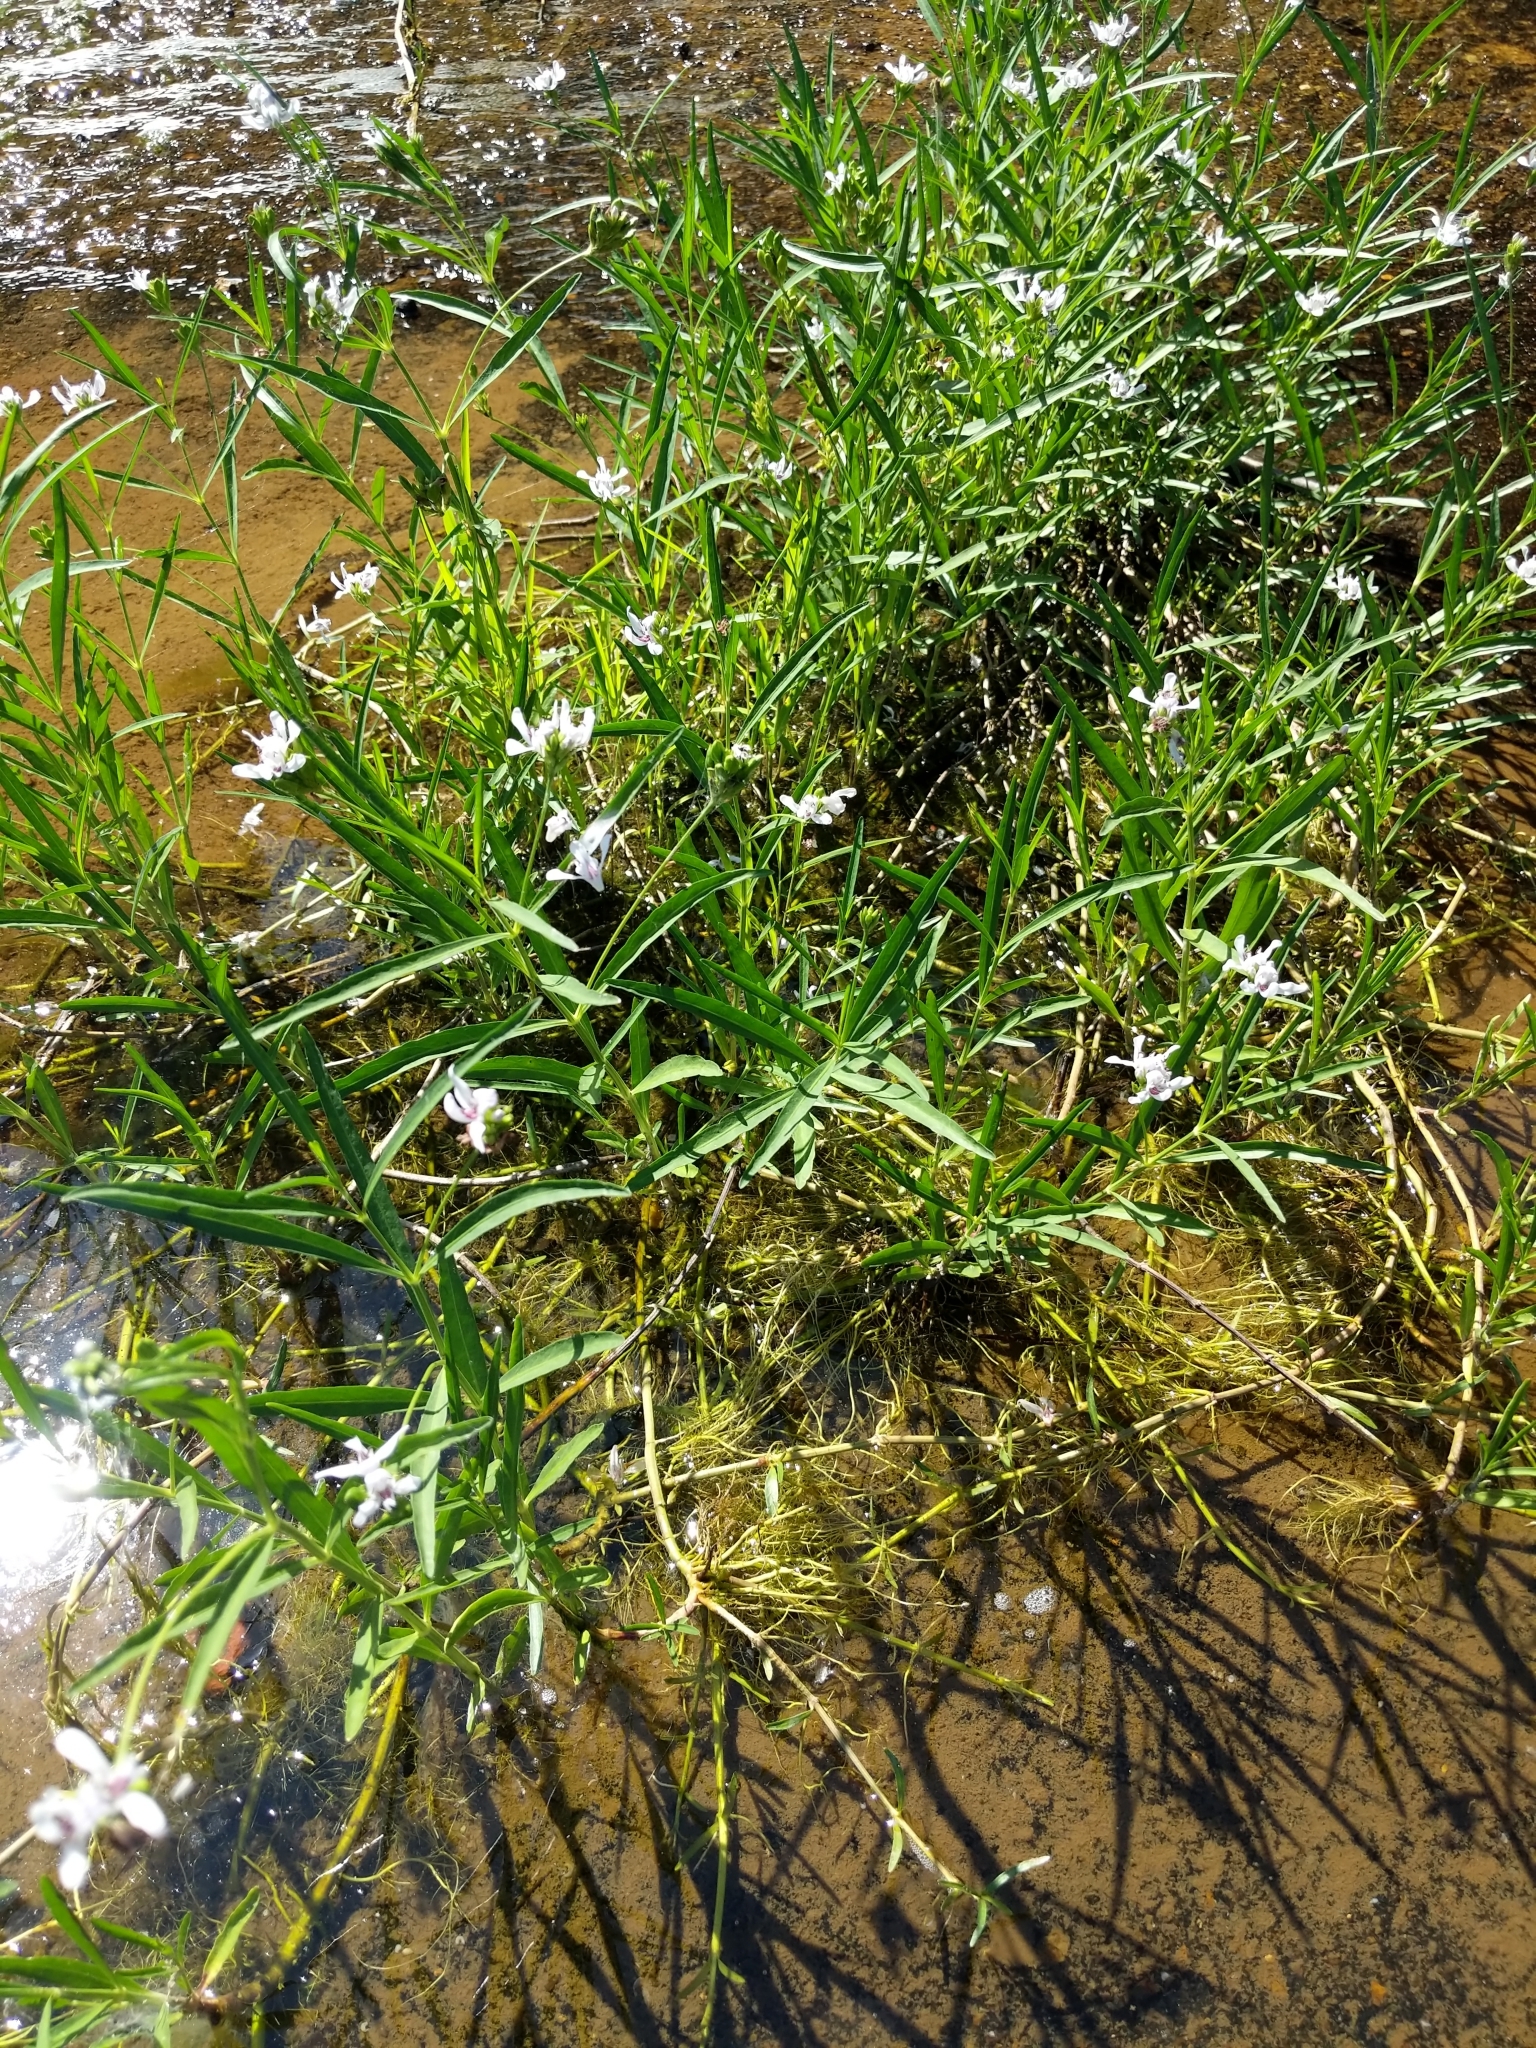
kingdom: Plantae
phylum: Tracheophyta
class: Magnoliopsida
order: Lamiales
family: Acanthaceae
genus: Dianthera
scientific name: Dianthera americana
